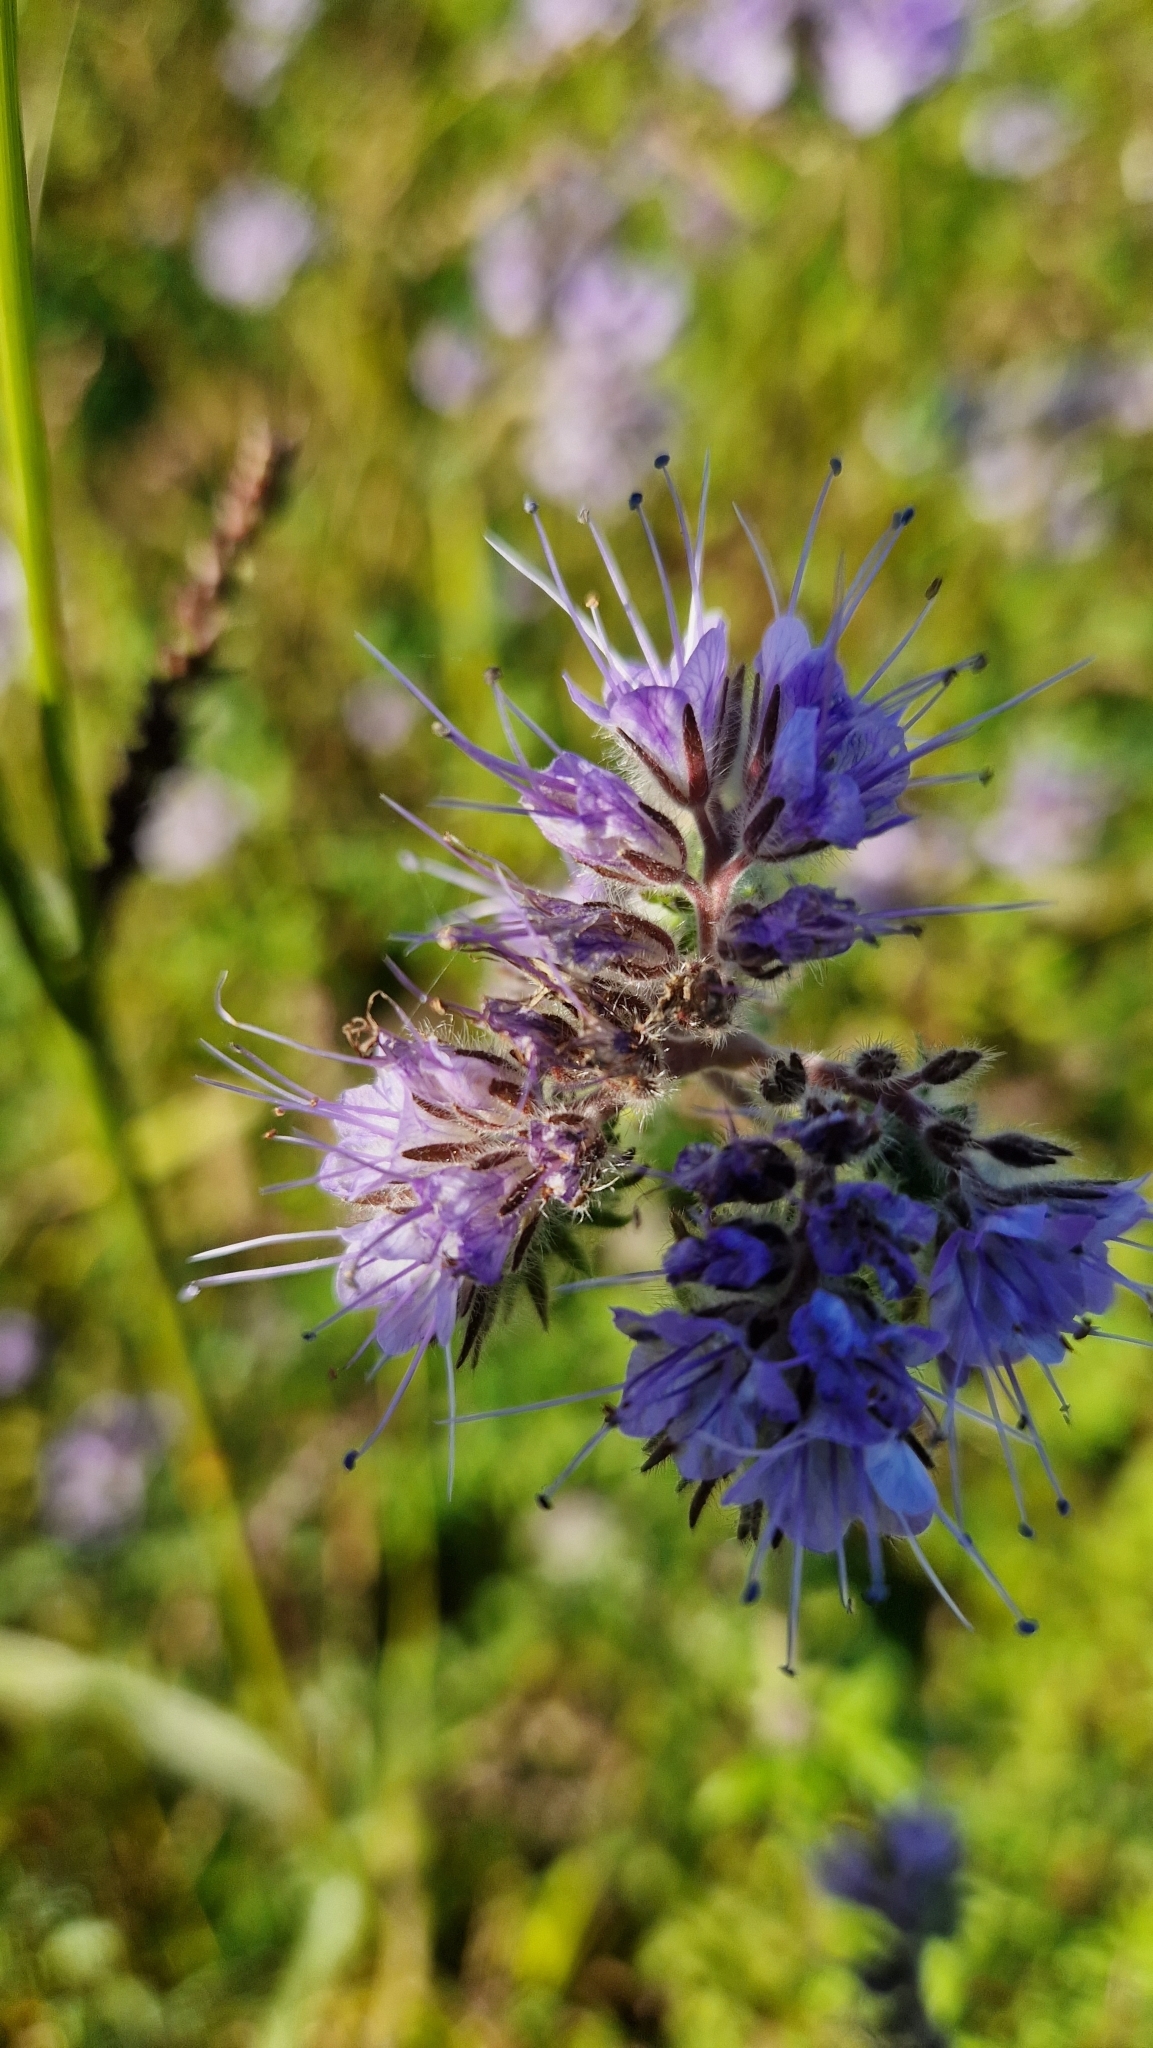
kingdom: Plantae
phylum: Tracheophyta
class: Magnoliopsida
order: Boraginales
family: Hydrophyllaceae
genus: Phacelia
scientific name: Phacelia tanacetifolia
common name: Phacelia
